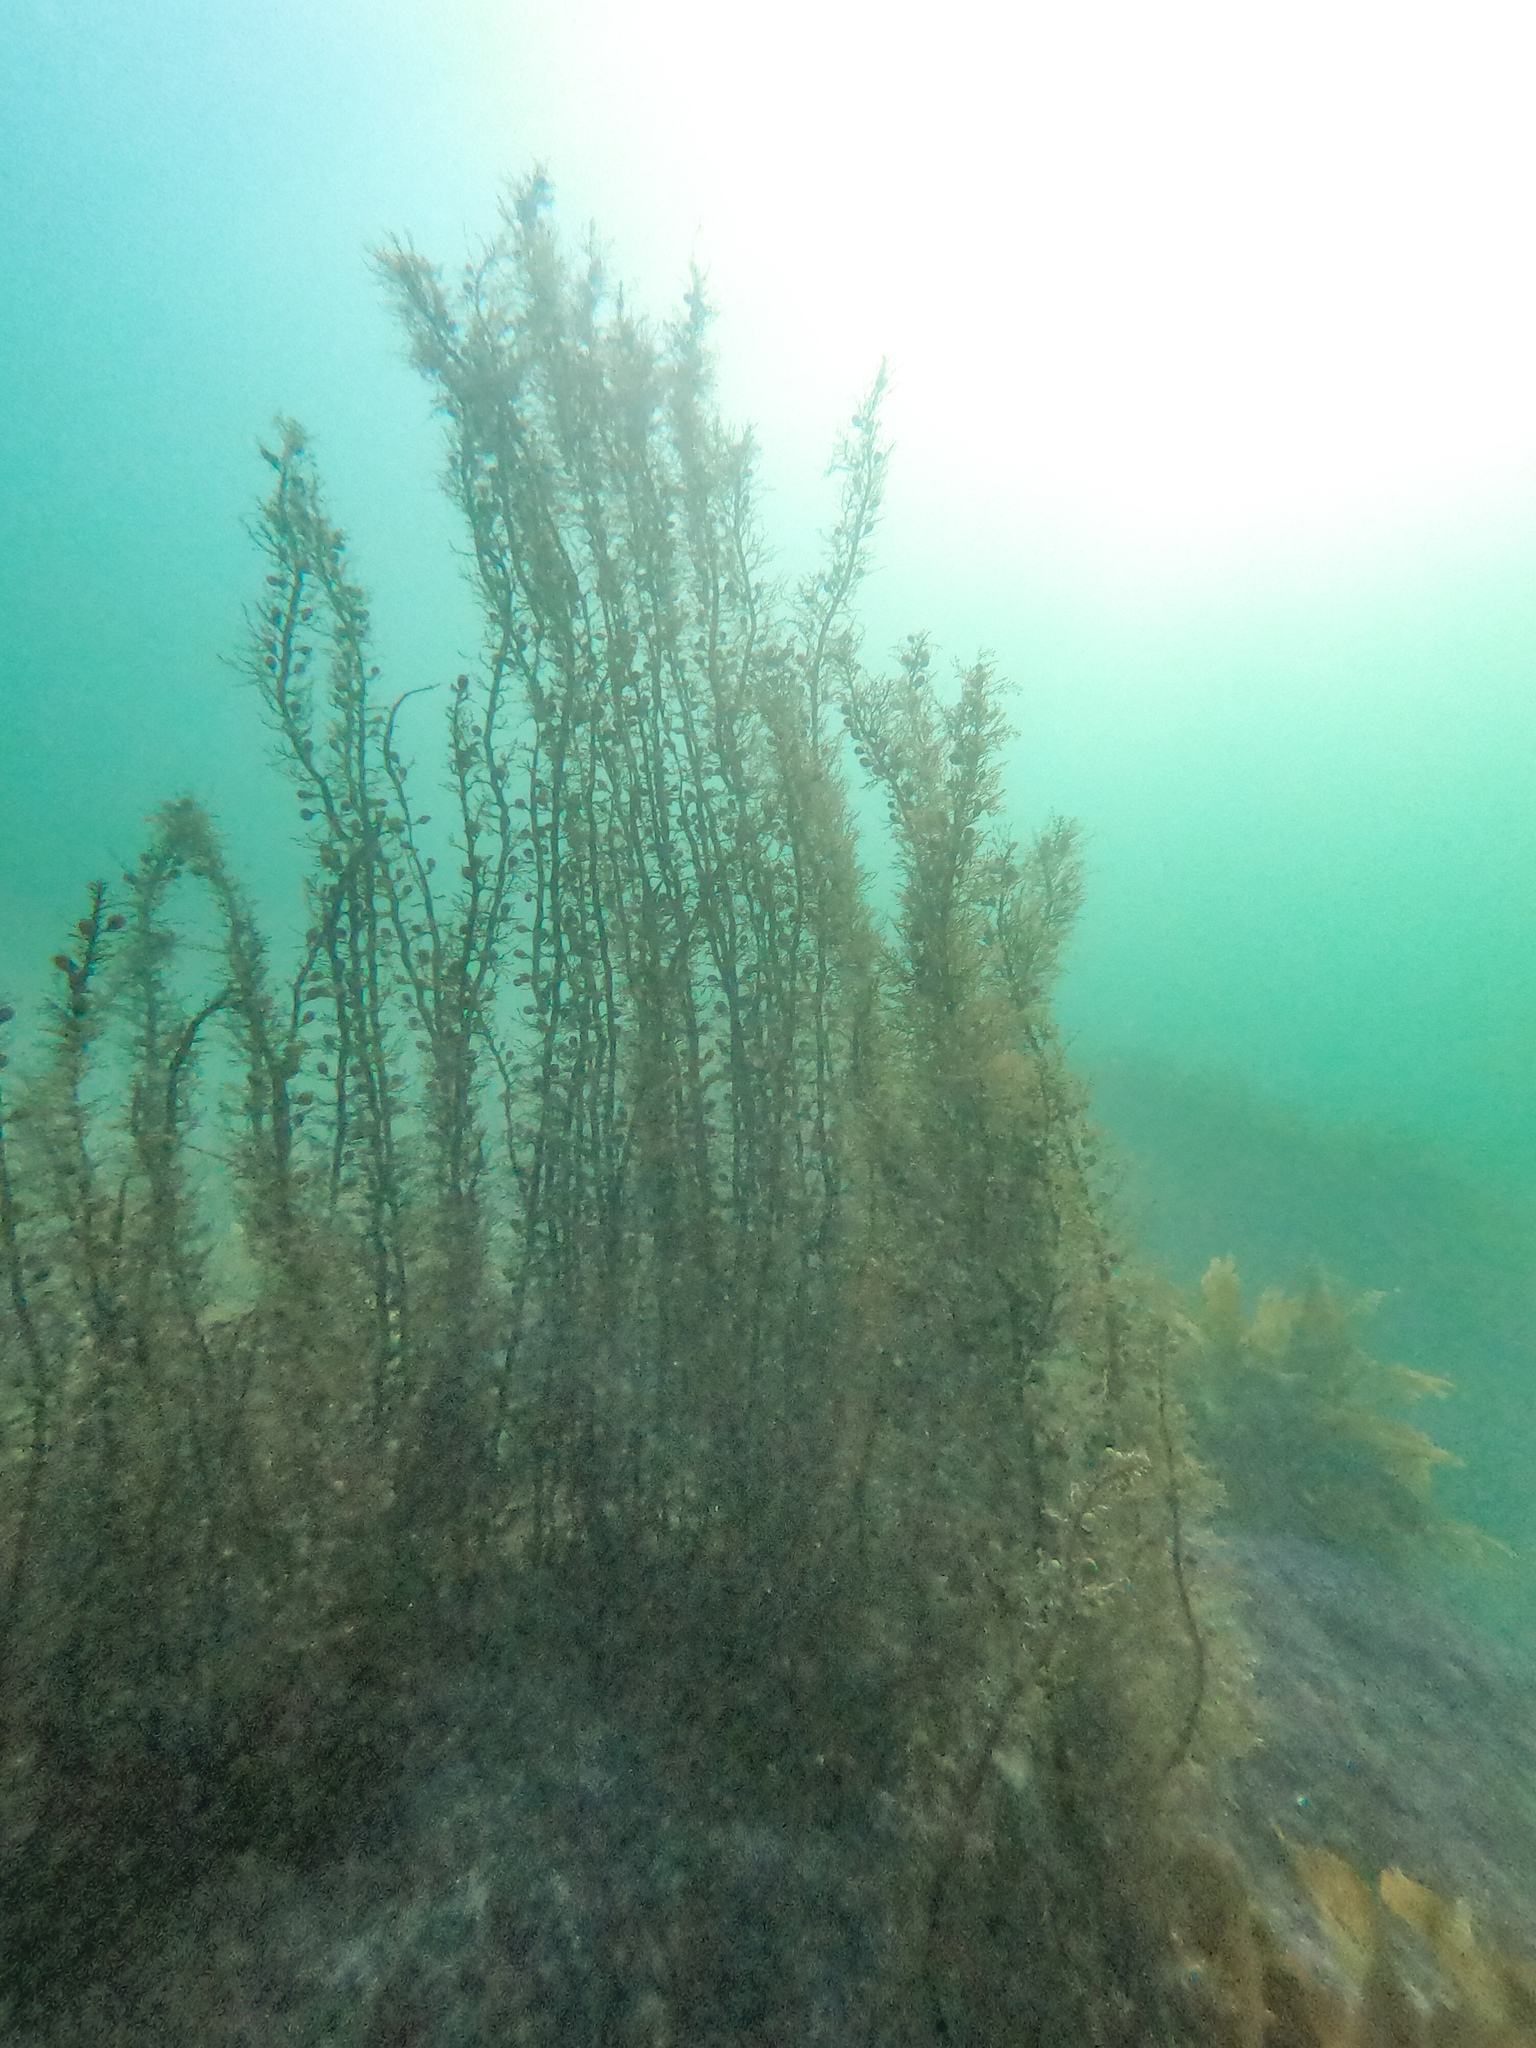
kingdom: Chromista
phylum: Ochrophyta
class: Phaeophyceae
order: Fucales
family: Sargassaceae
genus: Carpophyllum
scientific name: Carpophyllum plumosum
